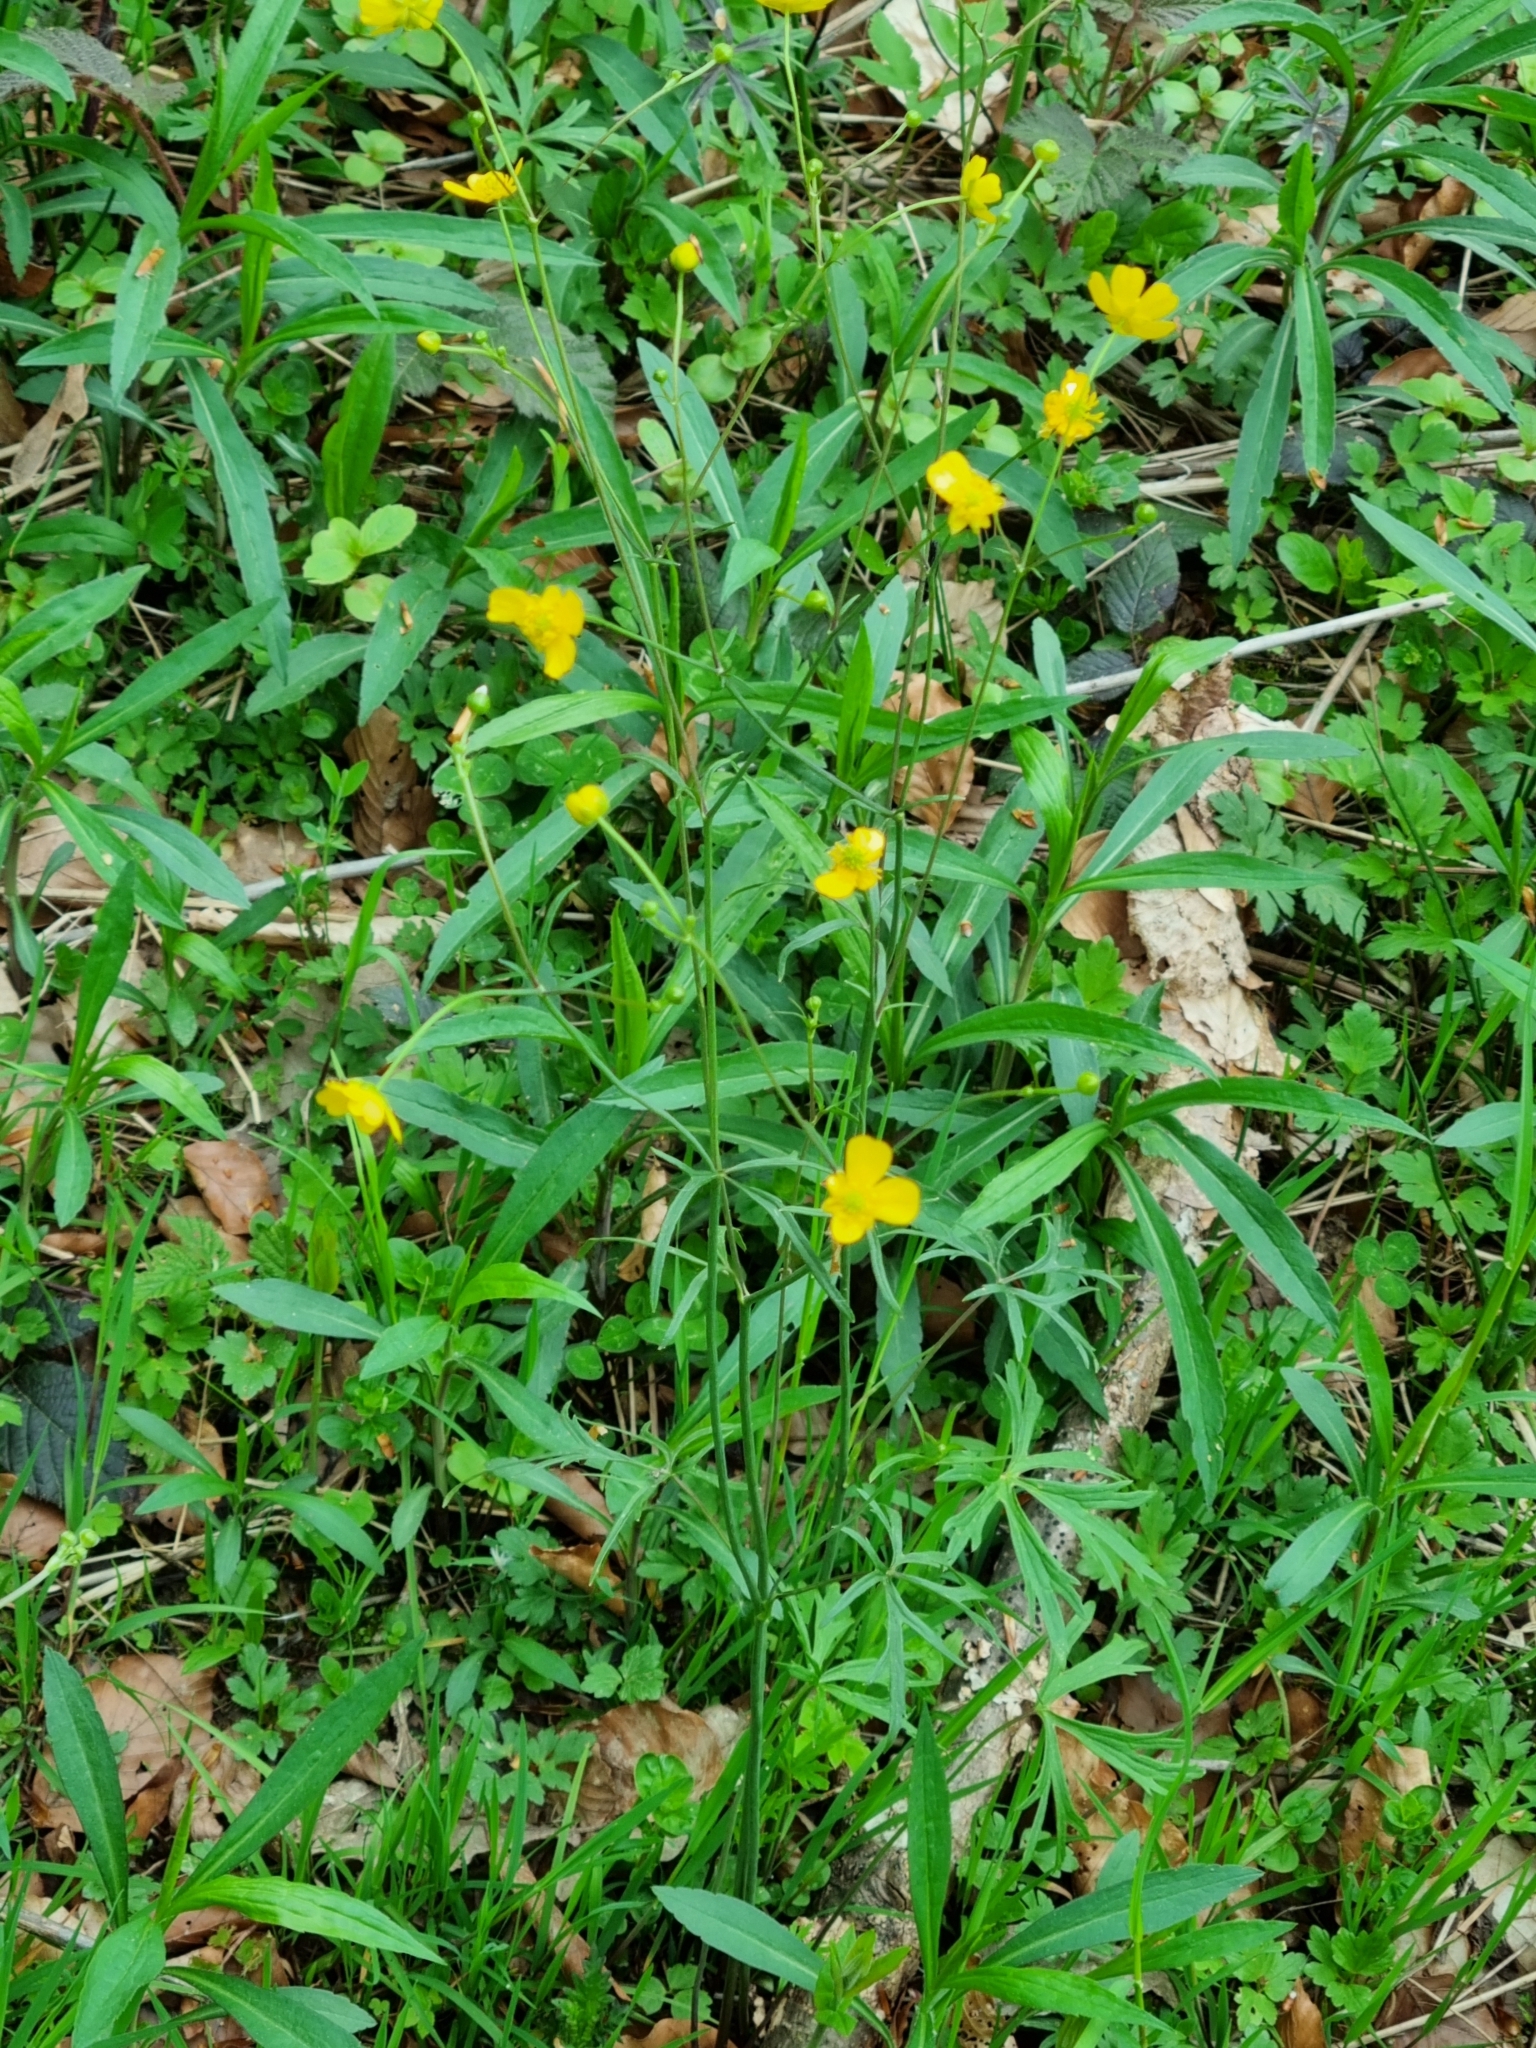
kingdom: Plantae
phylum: Tracheophyta
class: Magnoliopsida
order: Ranunculales
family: Ranunculaceae
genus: Ranunculus
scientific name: Ranunculus acris
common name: Meadow buttercup
